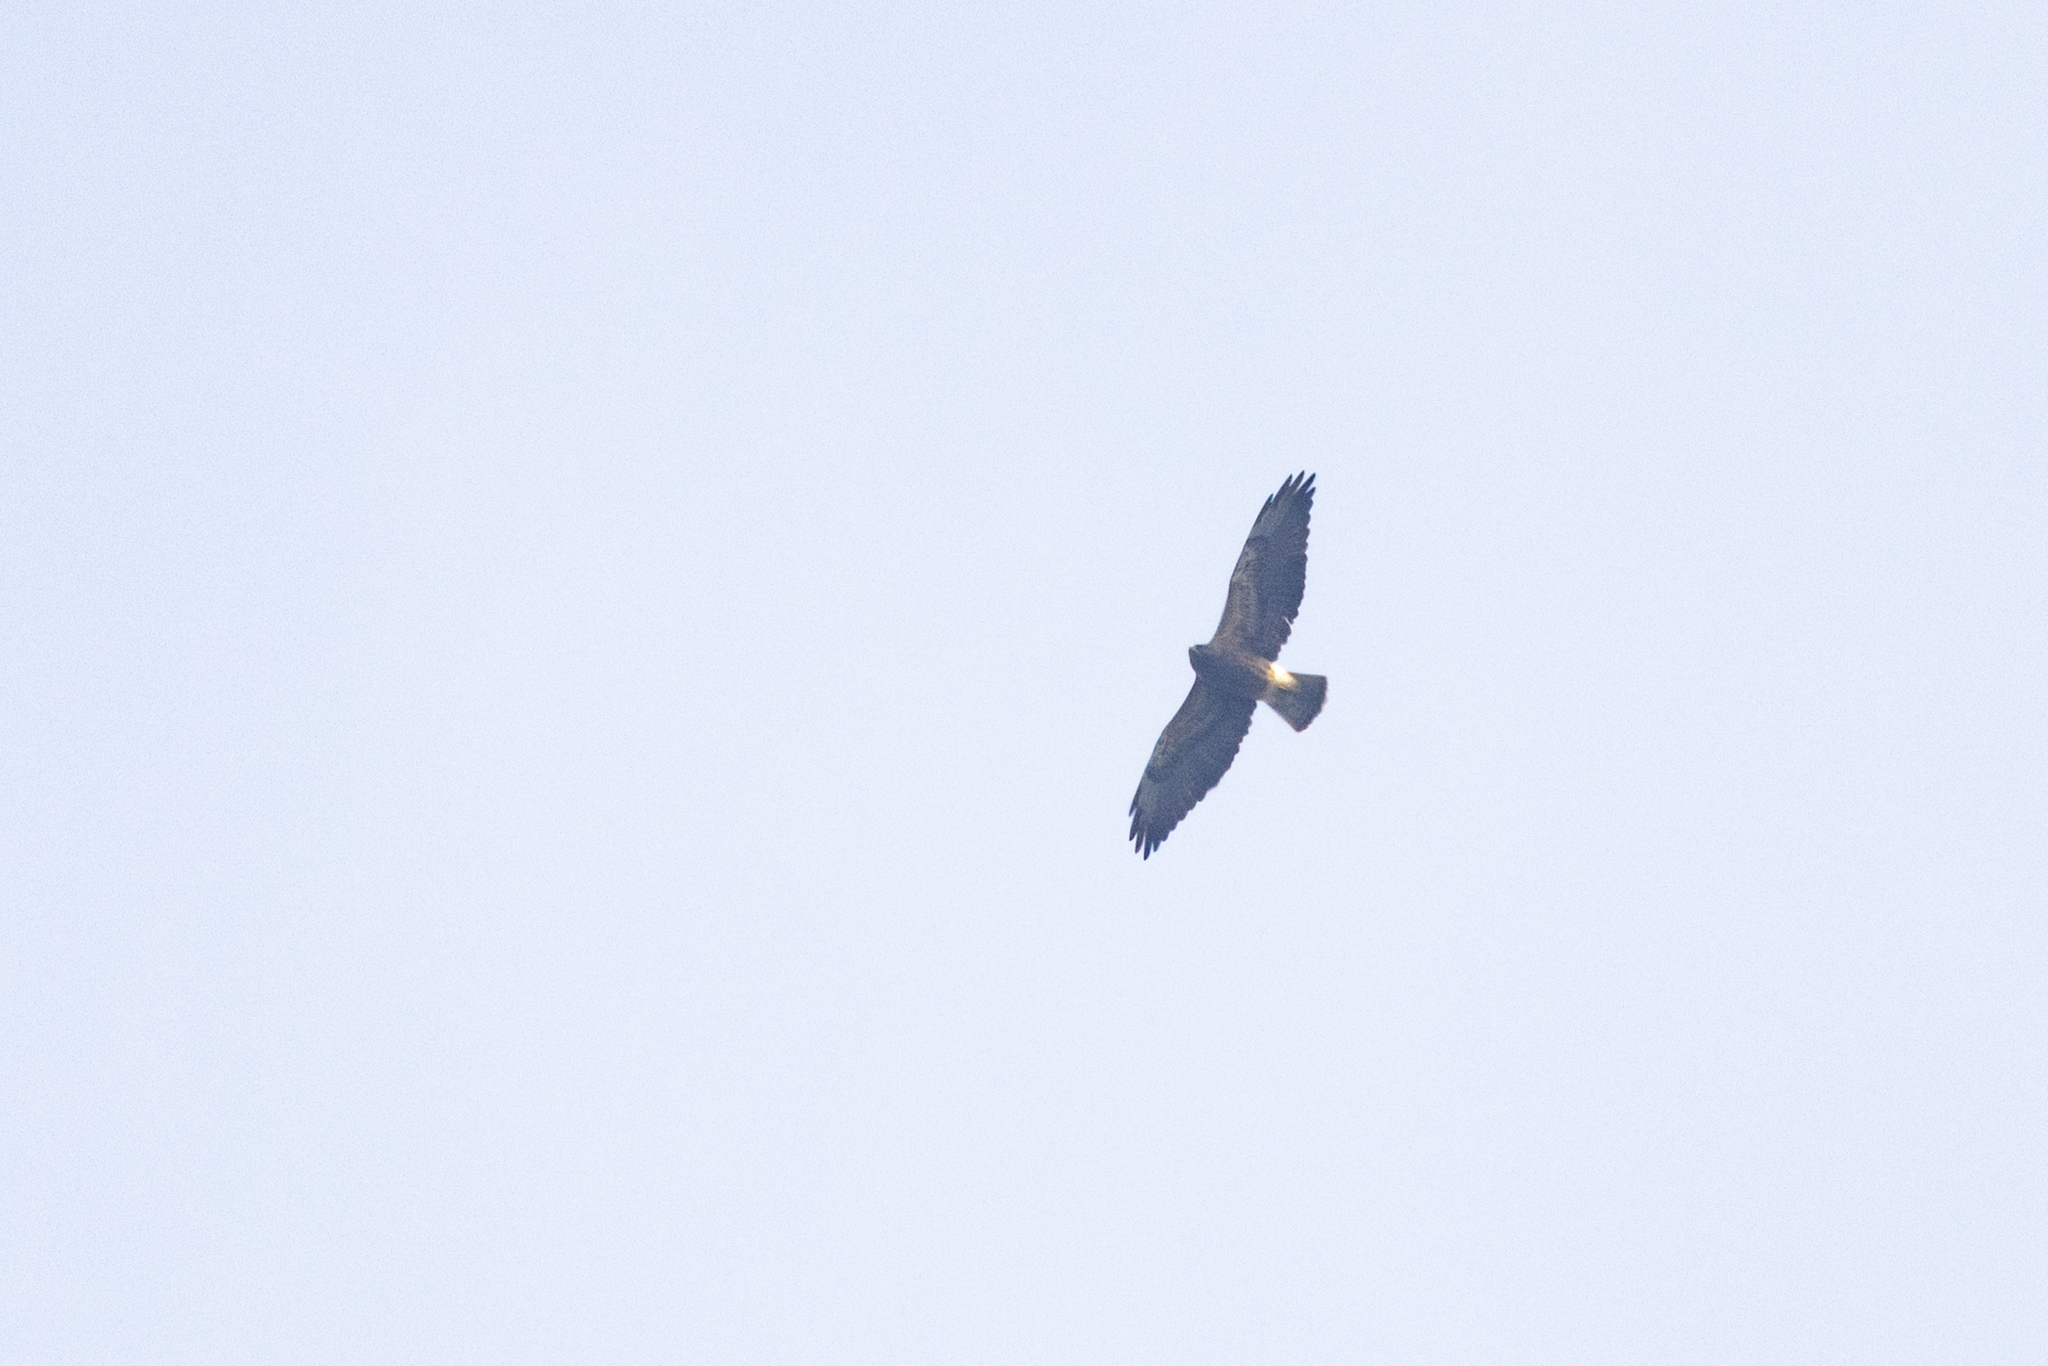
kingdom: Animalia
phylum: Chordata
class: Aves
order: Accipitriformes
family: Accipitridae
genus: Buteo
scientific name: Buteo swainsoni
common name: Swainson's hawk
